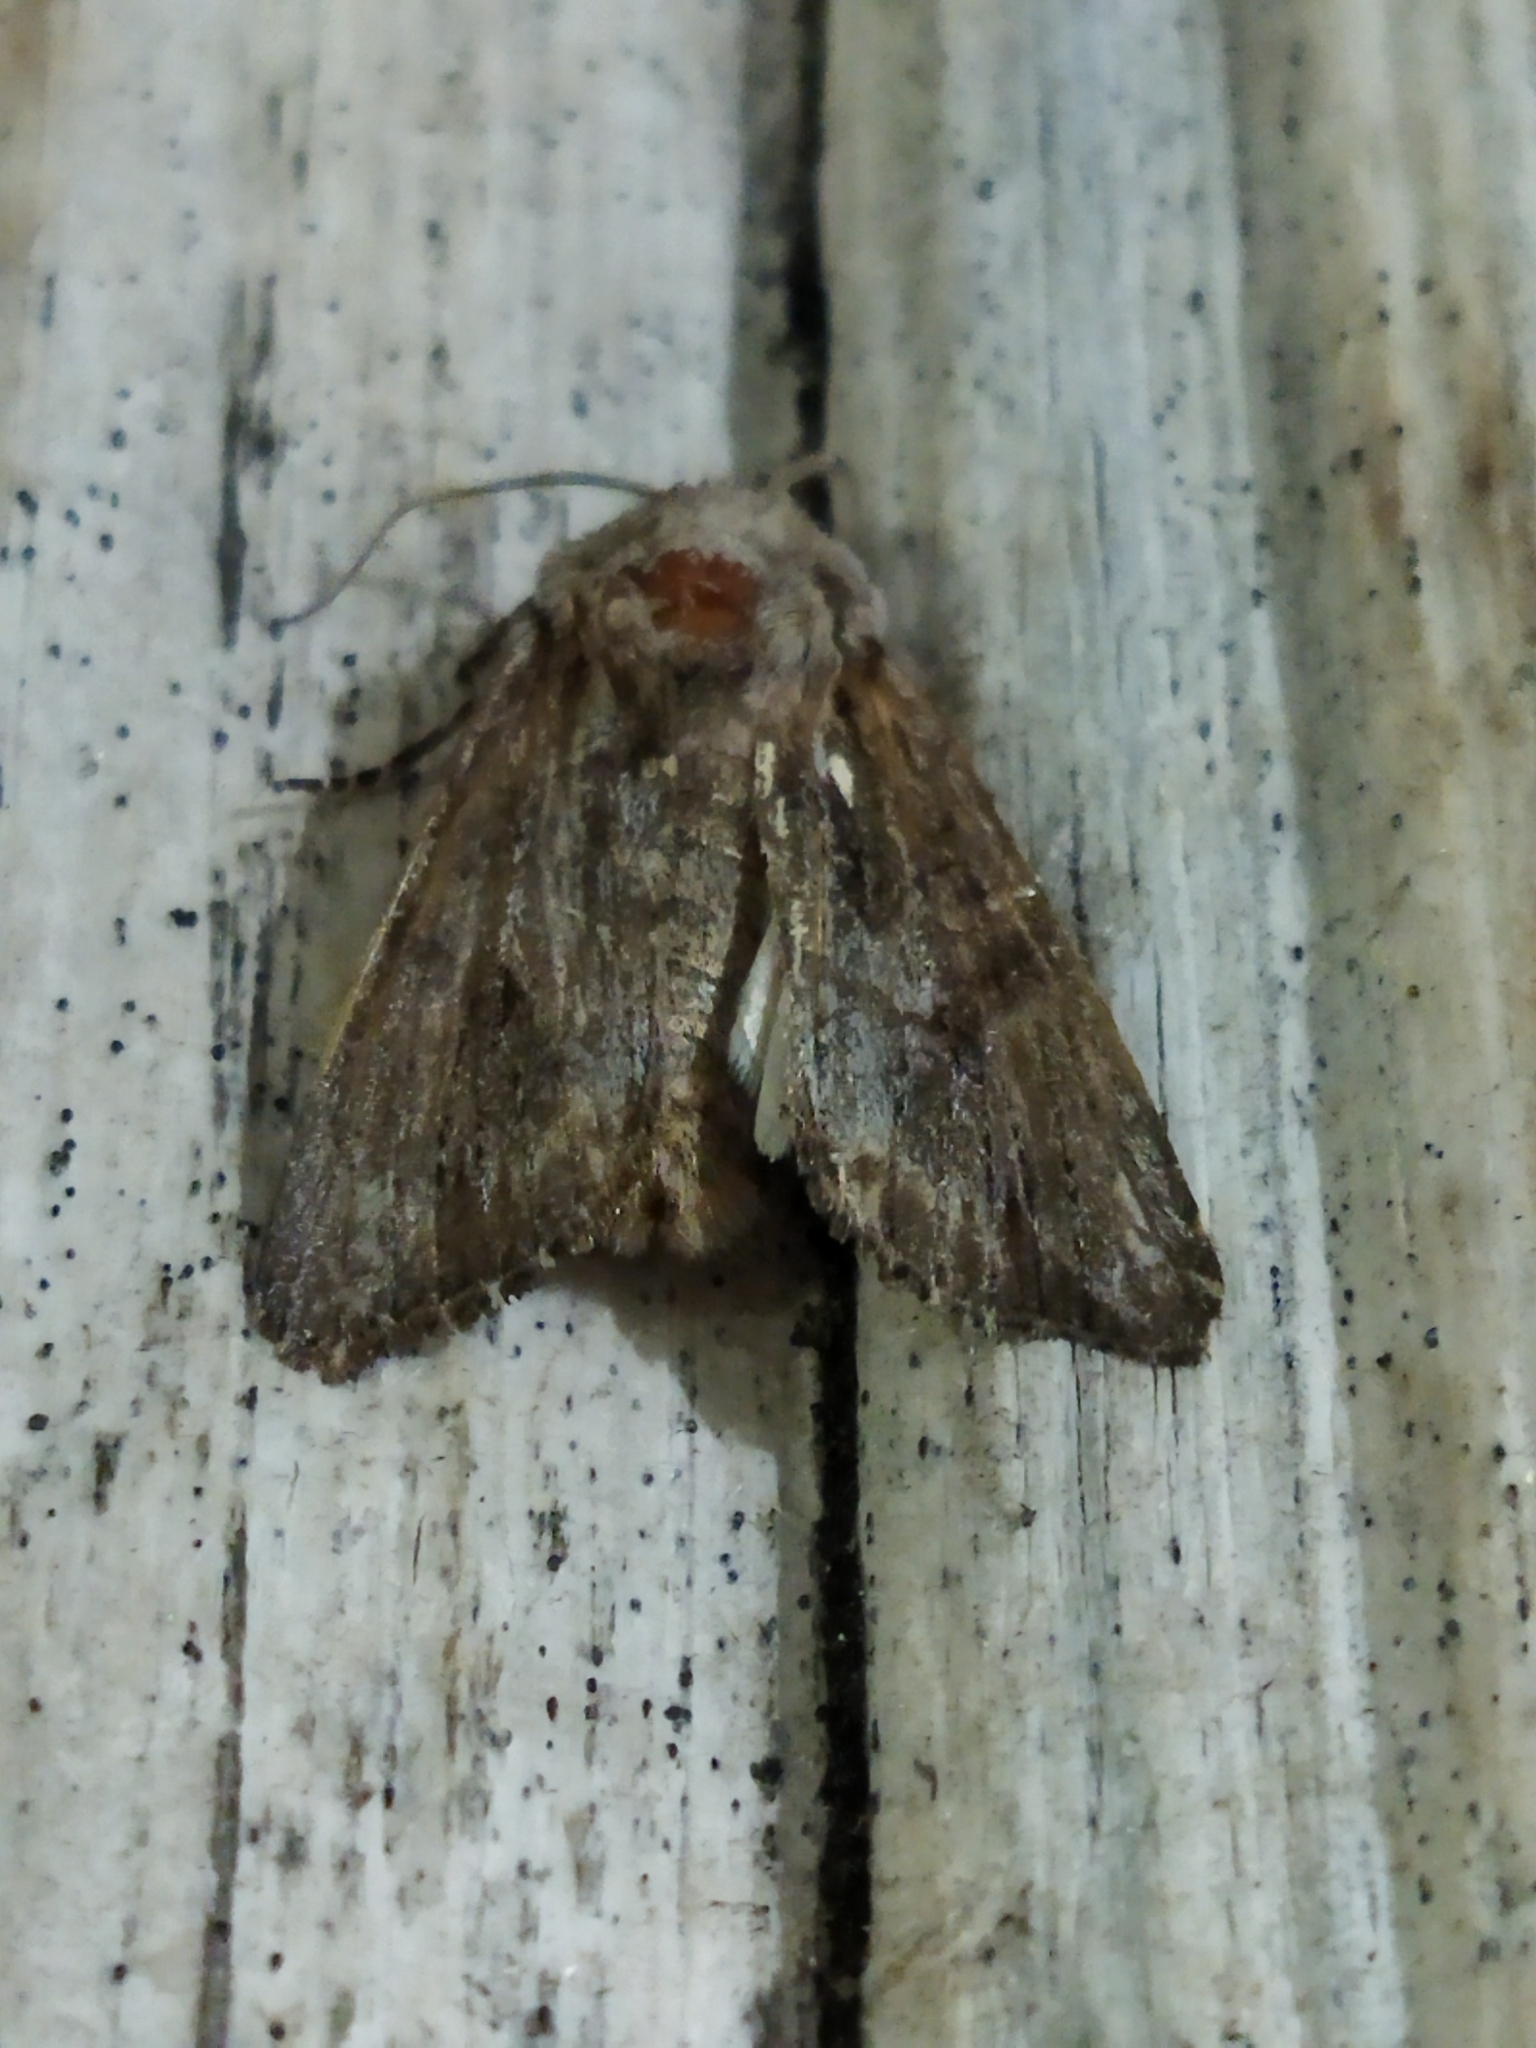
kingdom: Animalia
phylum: Arthropoda
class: Insecta
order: Lepidoptera
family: Noctuidae
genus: Egira
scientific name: Egira
